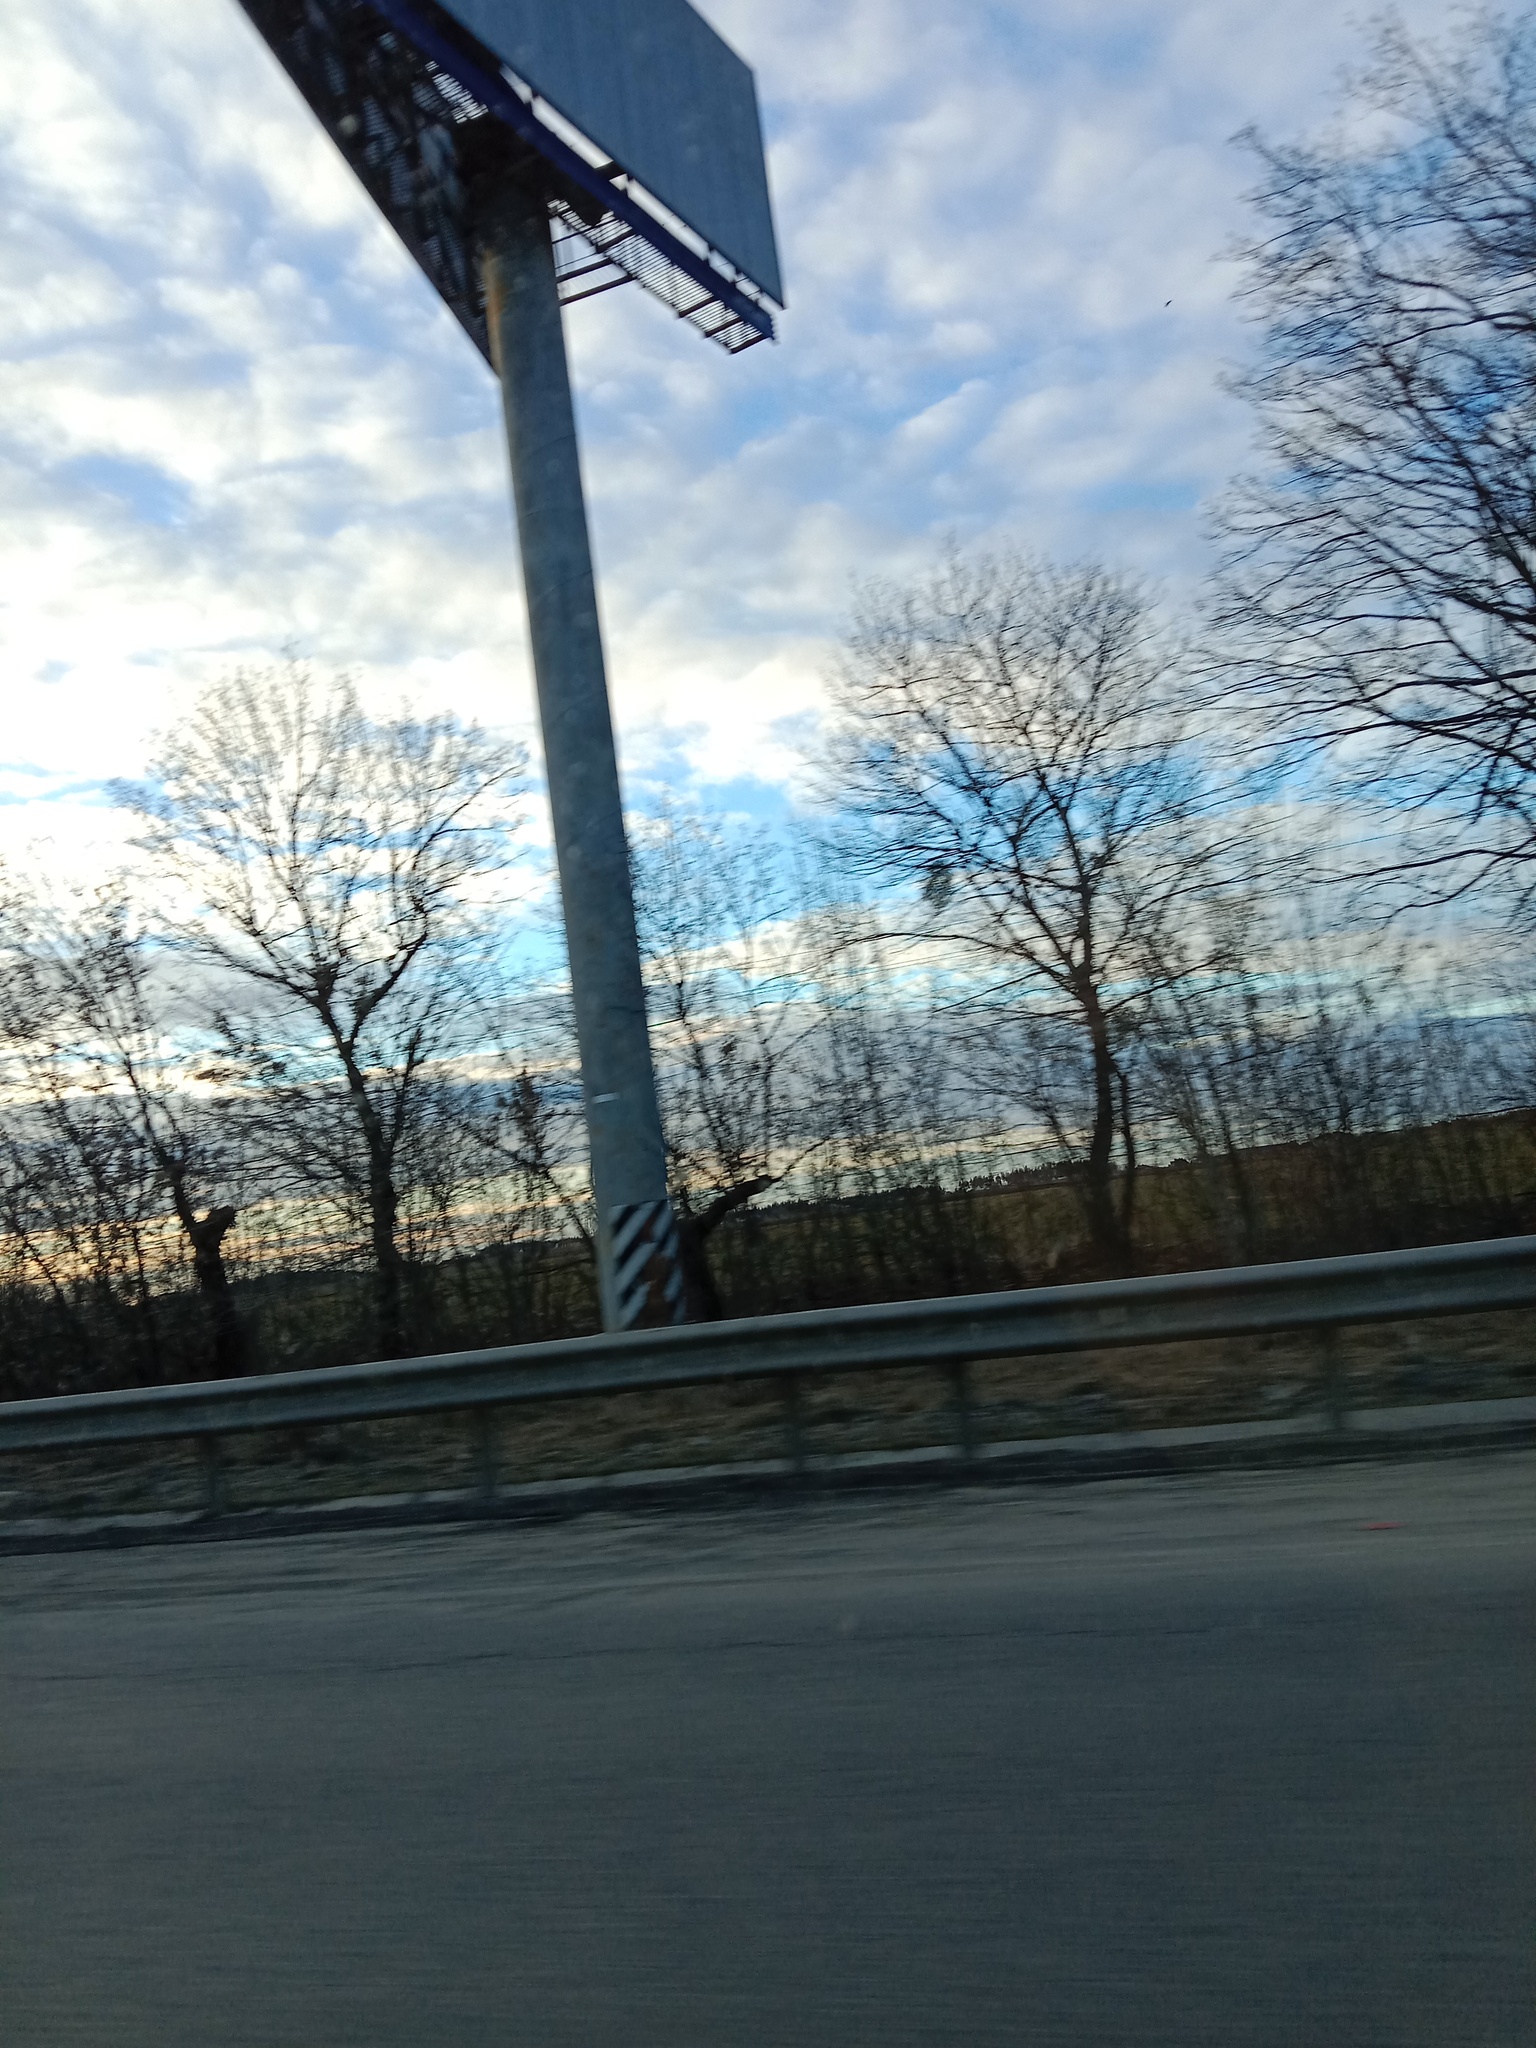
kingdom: Plantae
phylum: Tracheophyta
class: Magnoliopsida
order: Santalales
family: Viscaceae
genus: Viscum
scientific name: Viscum album
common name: Mistletoe
